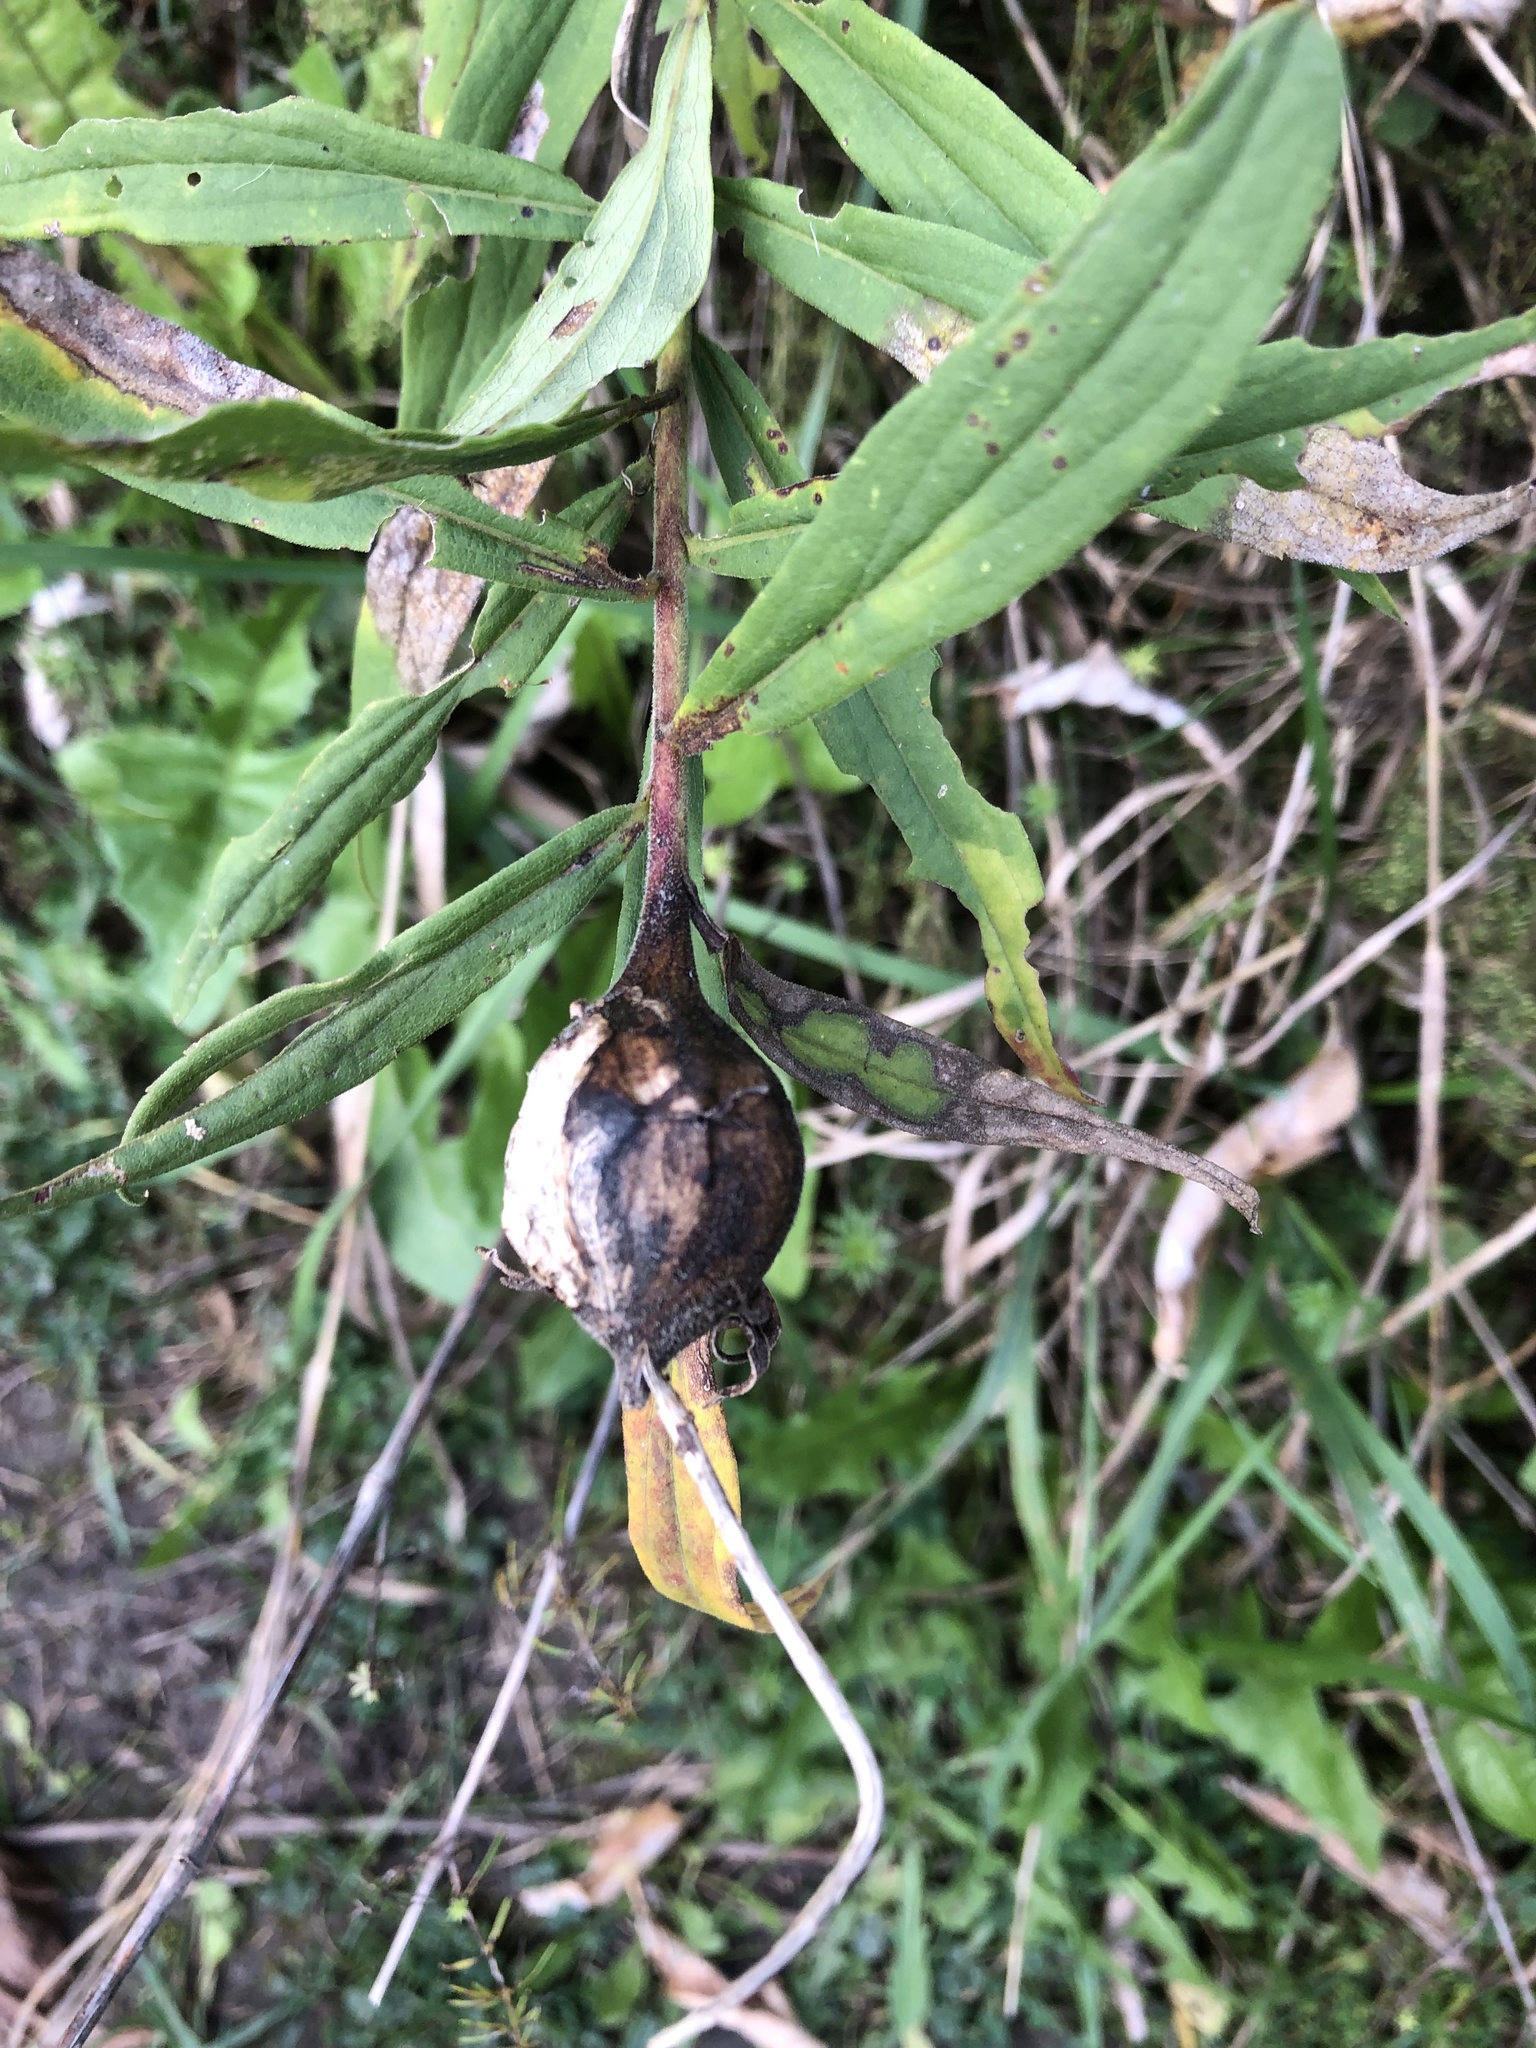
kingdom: Animalia
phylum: Arthropoda
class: Insecta
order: Diptera
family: Tephritidae
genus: Eurosta
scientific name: Eurosta solidaginis
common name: Goldenrod gall fly
